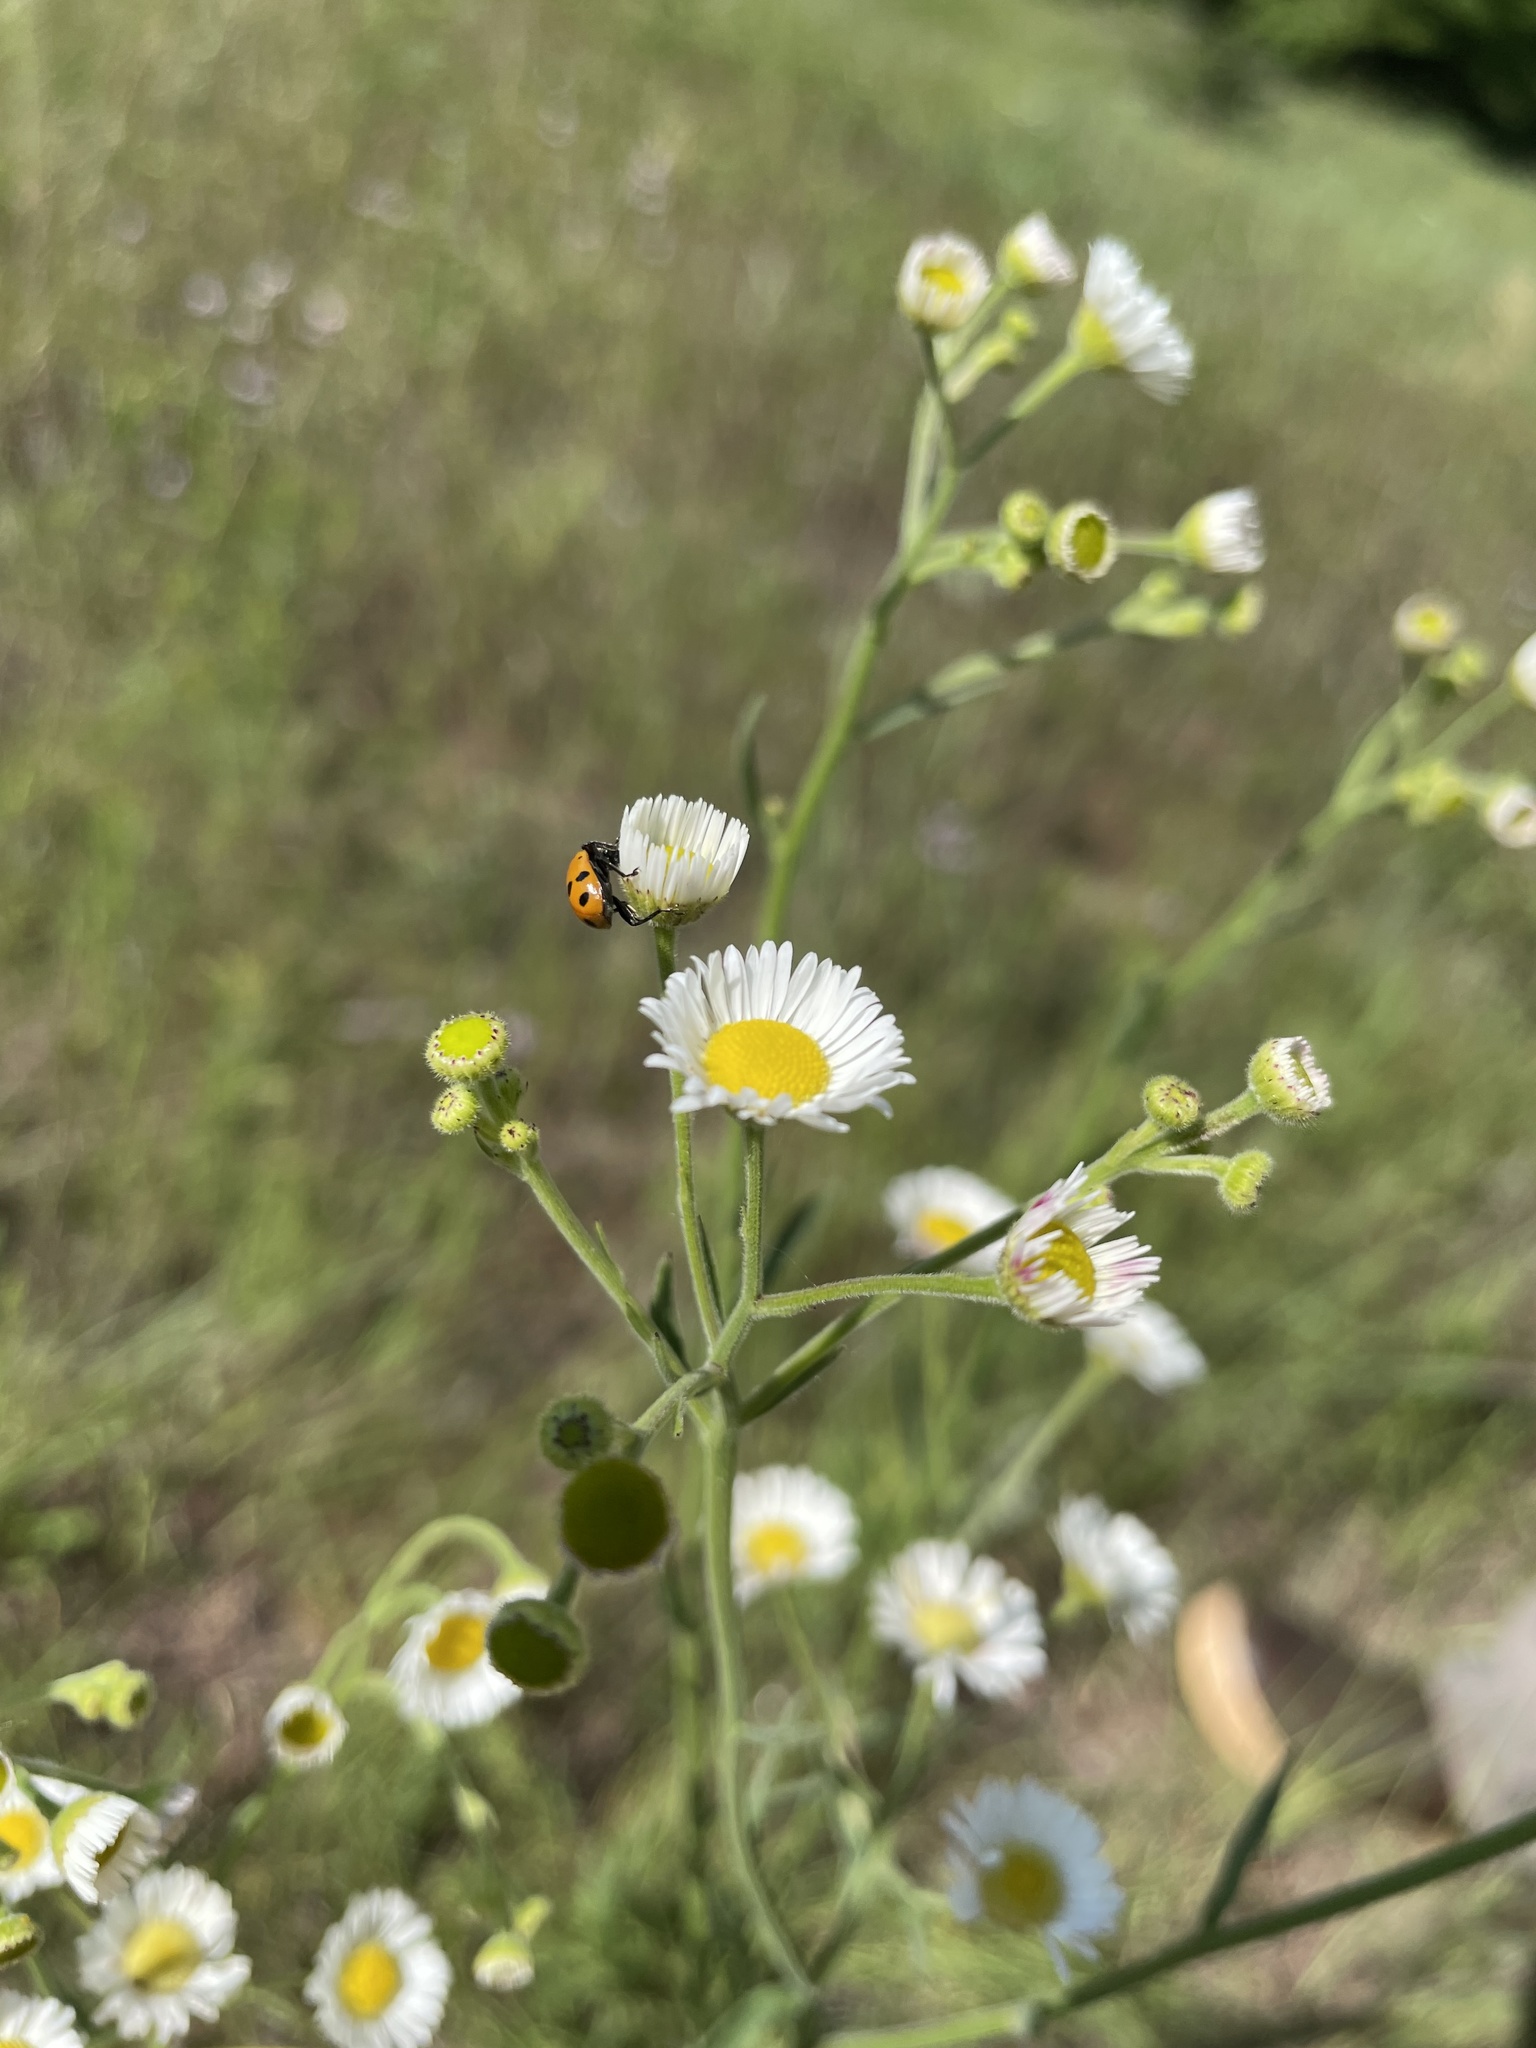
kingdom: Animalia
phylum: Arthropoda
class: Insecta
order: Coleoptera
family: Coccinellidae
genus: Hippodamia
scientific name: Hippodamia convergens
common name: Convergent lady beetle
